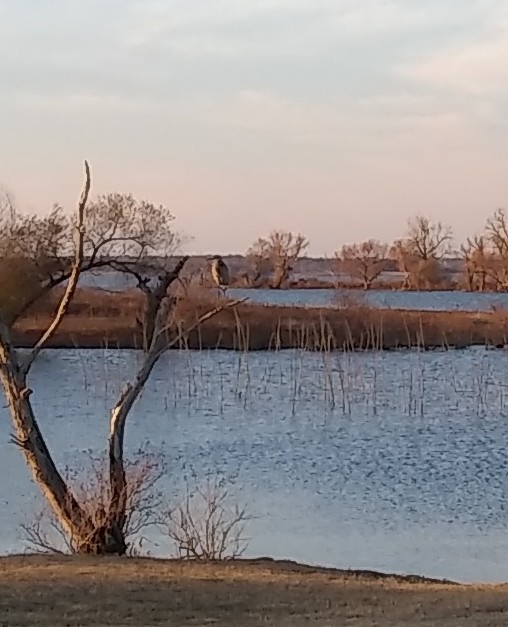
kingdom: Animalia
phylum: Chordata
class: Aves
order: Pelecaniformes
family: Ardeidae
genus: Ardea
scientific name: Ardea herodias
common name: Great blue heron
